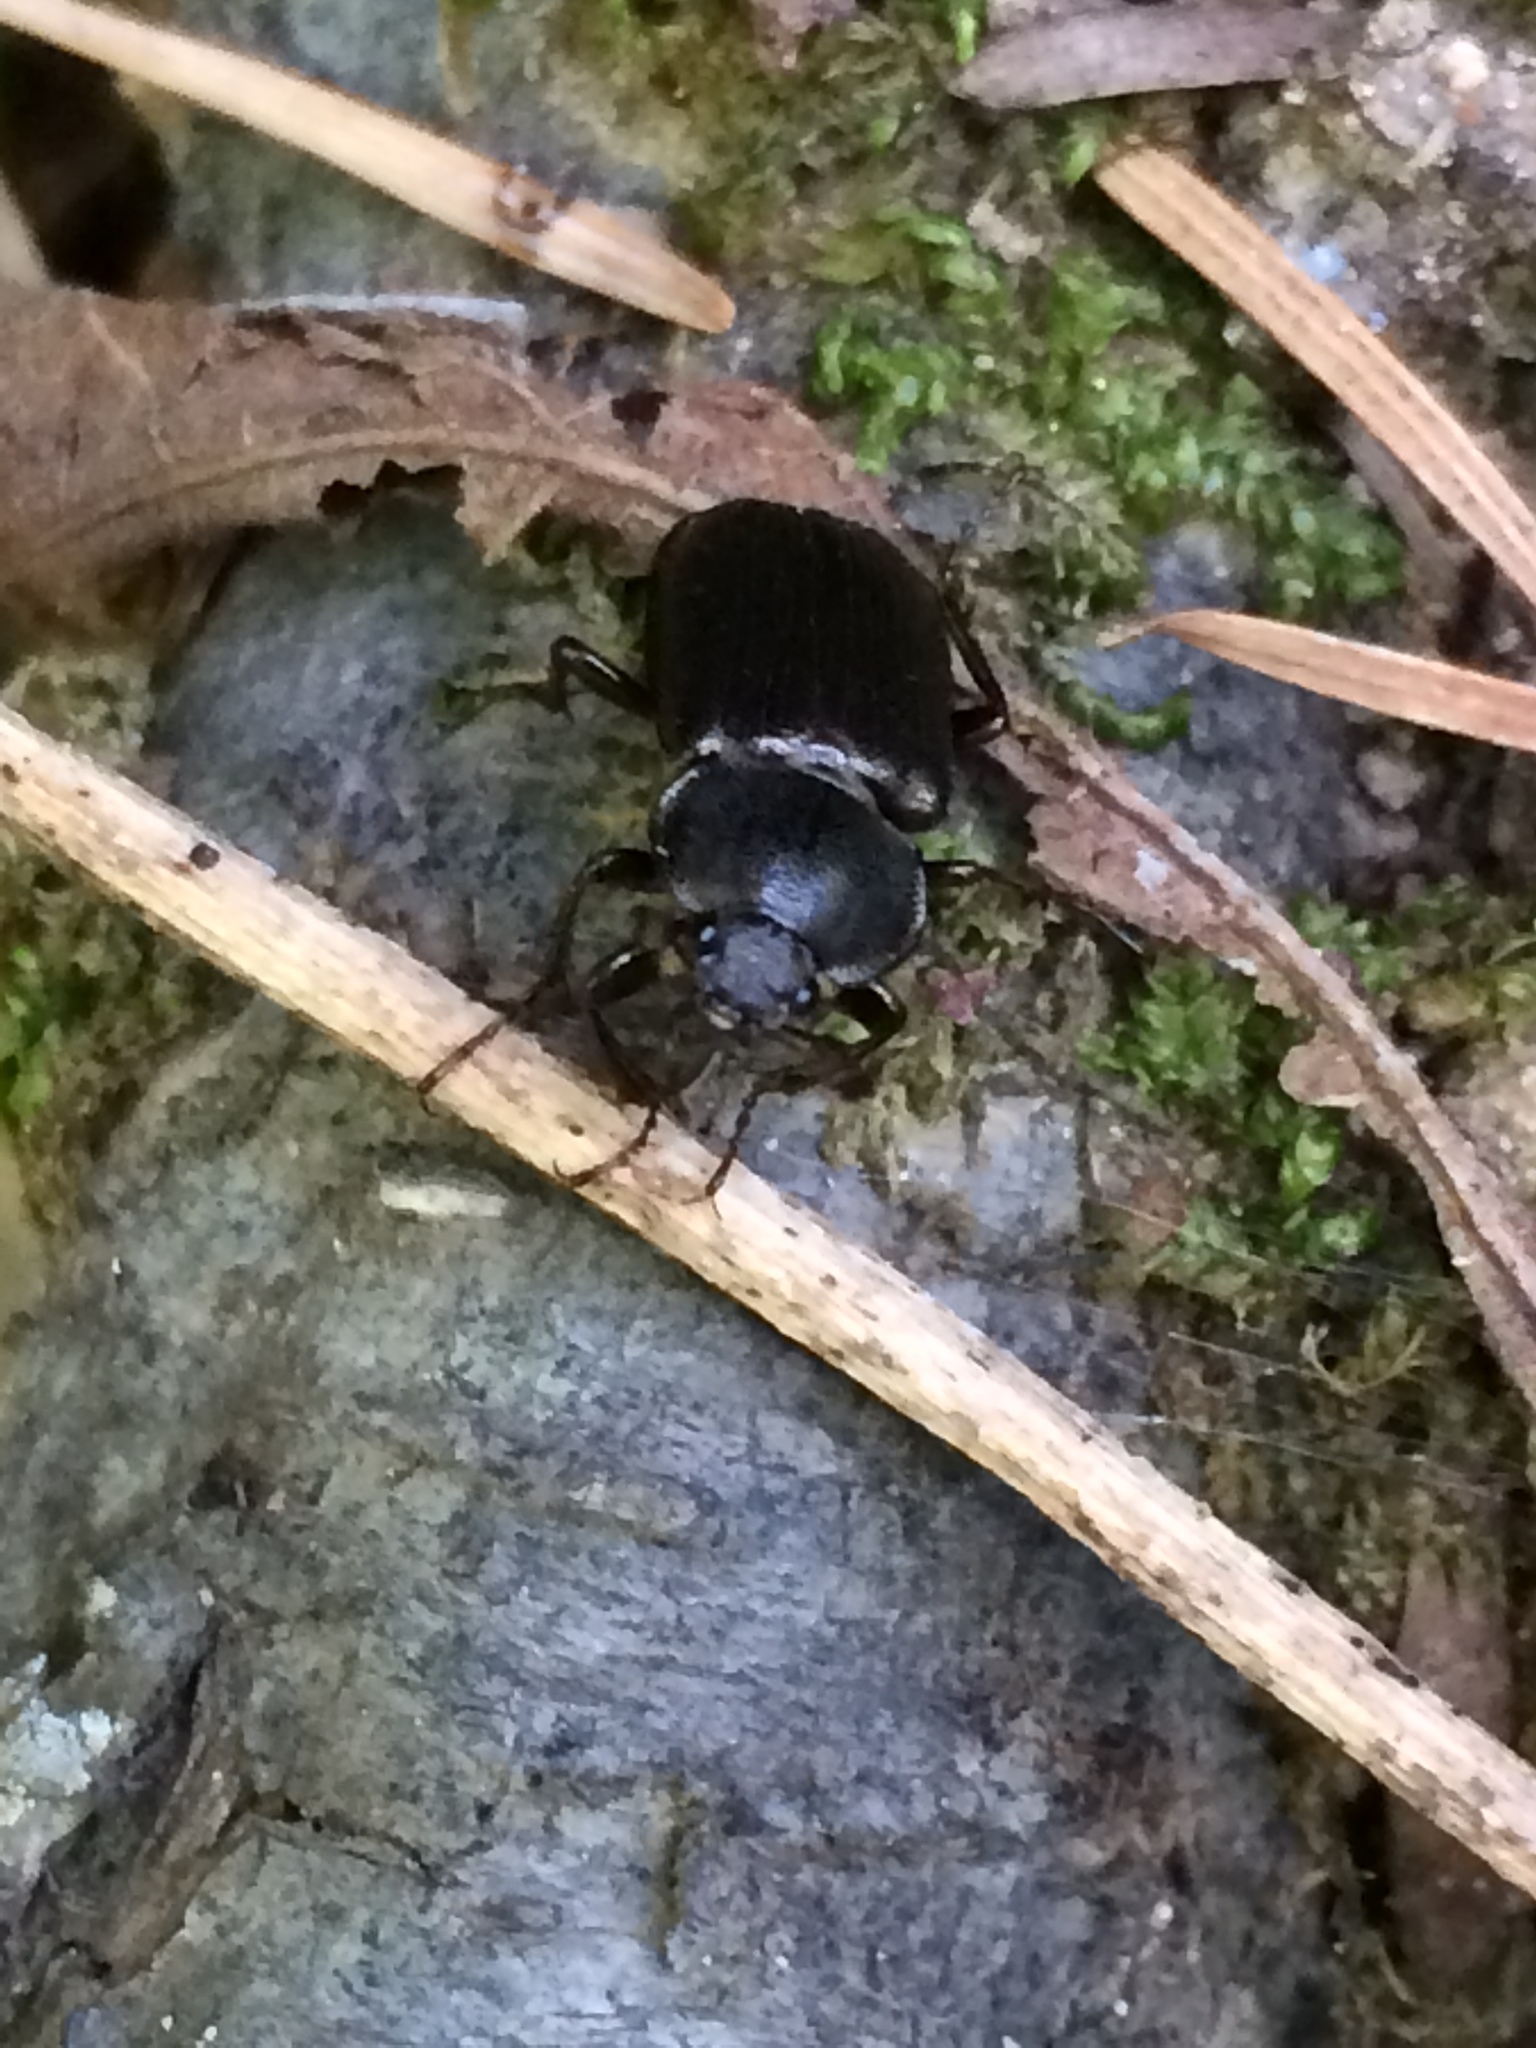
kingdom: Animalia
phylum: Arthropoda
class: Insecta
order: Coleoptera
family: Lucanidae
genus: Platyceroides
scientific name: Platyceroides infernus
